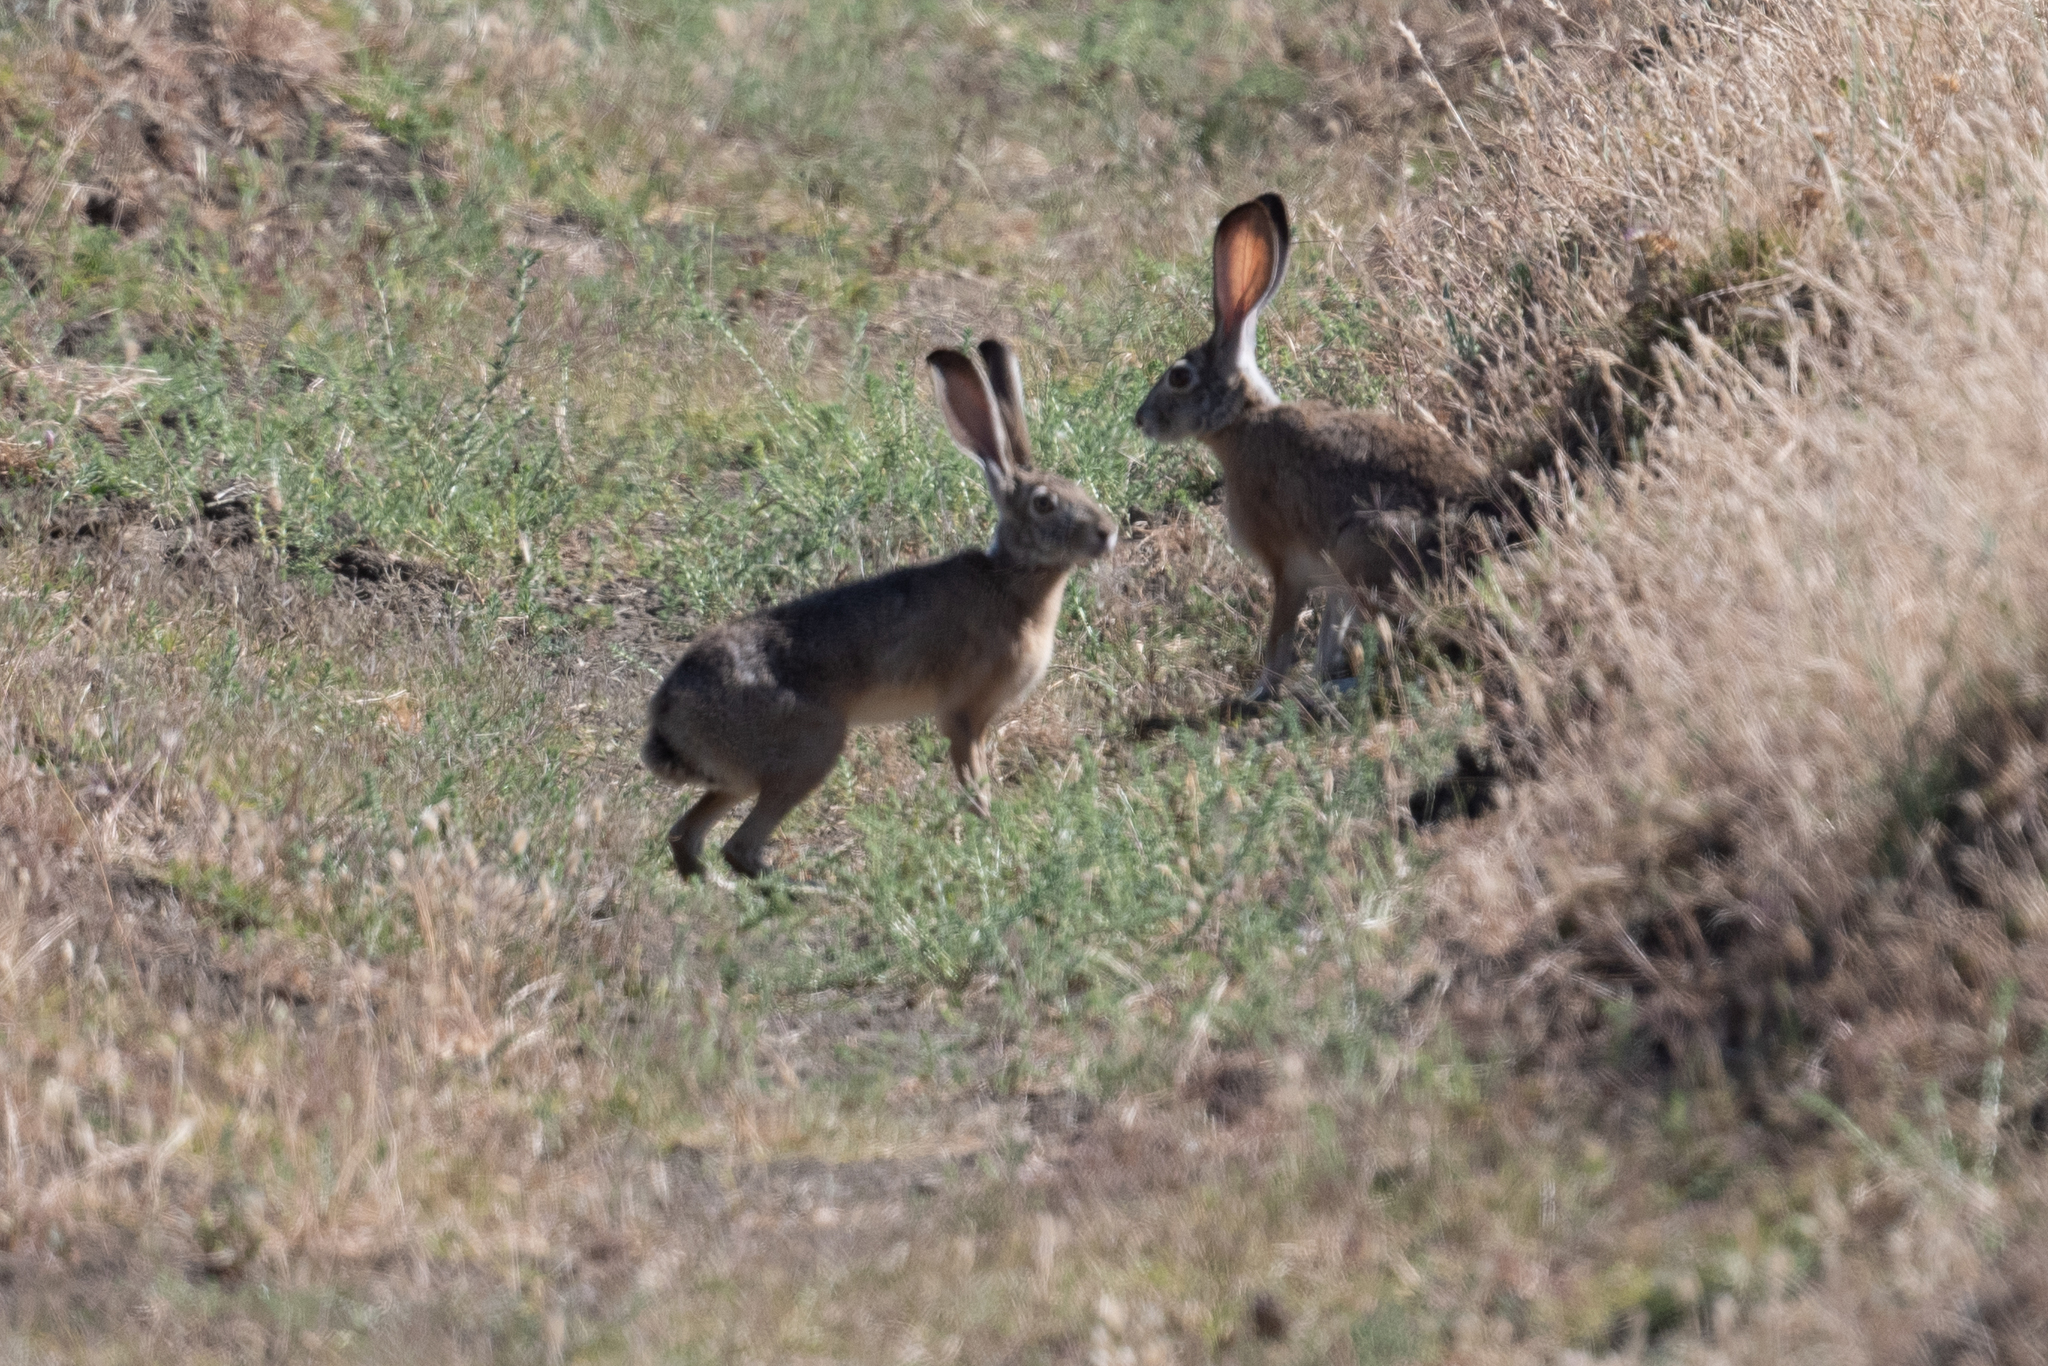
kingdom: Animalia
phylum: Chordata
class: Mammalia
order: Lagomorpha
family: Leporidae
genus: Lepus
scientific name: Lepus californicus
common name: Black-tailed jackrabbit
